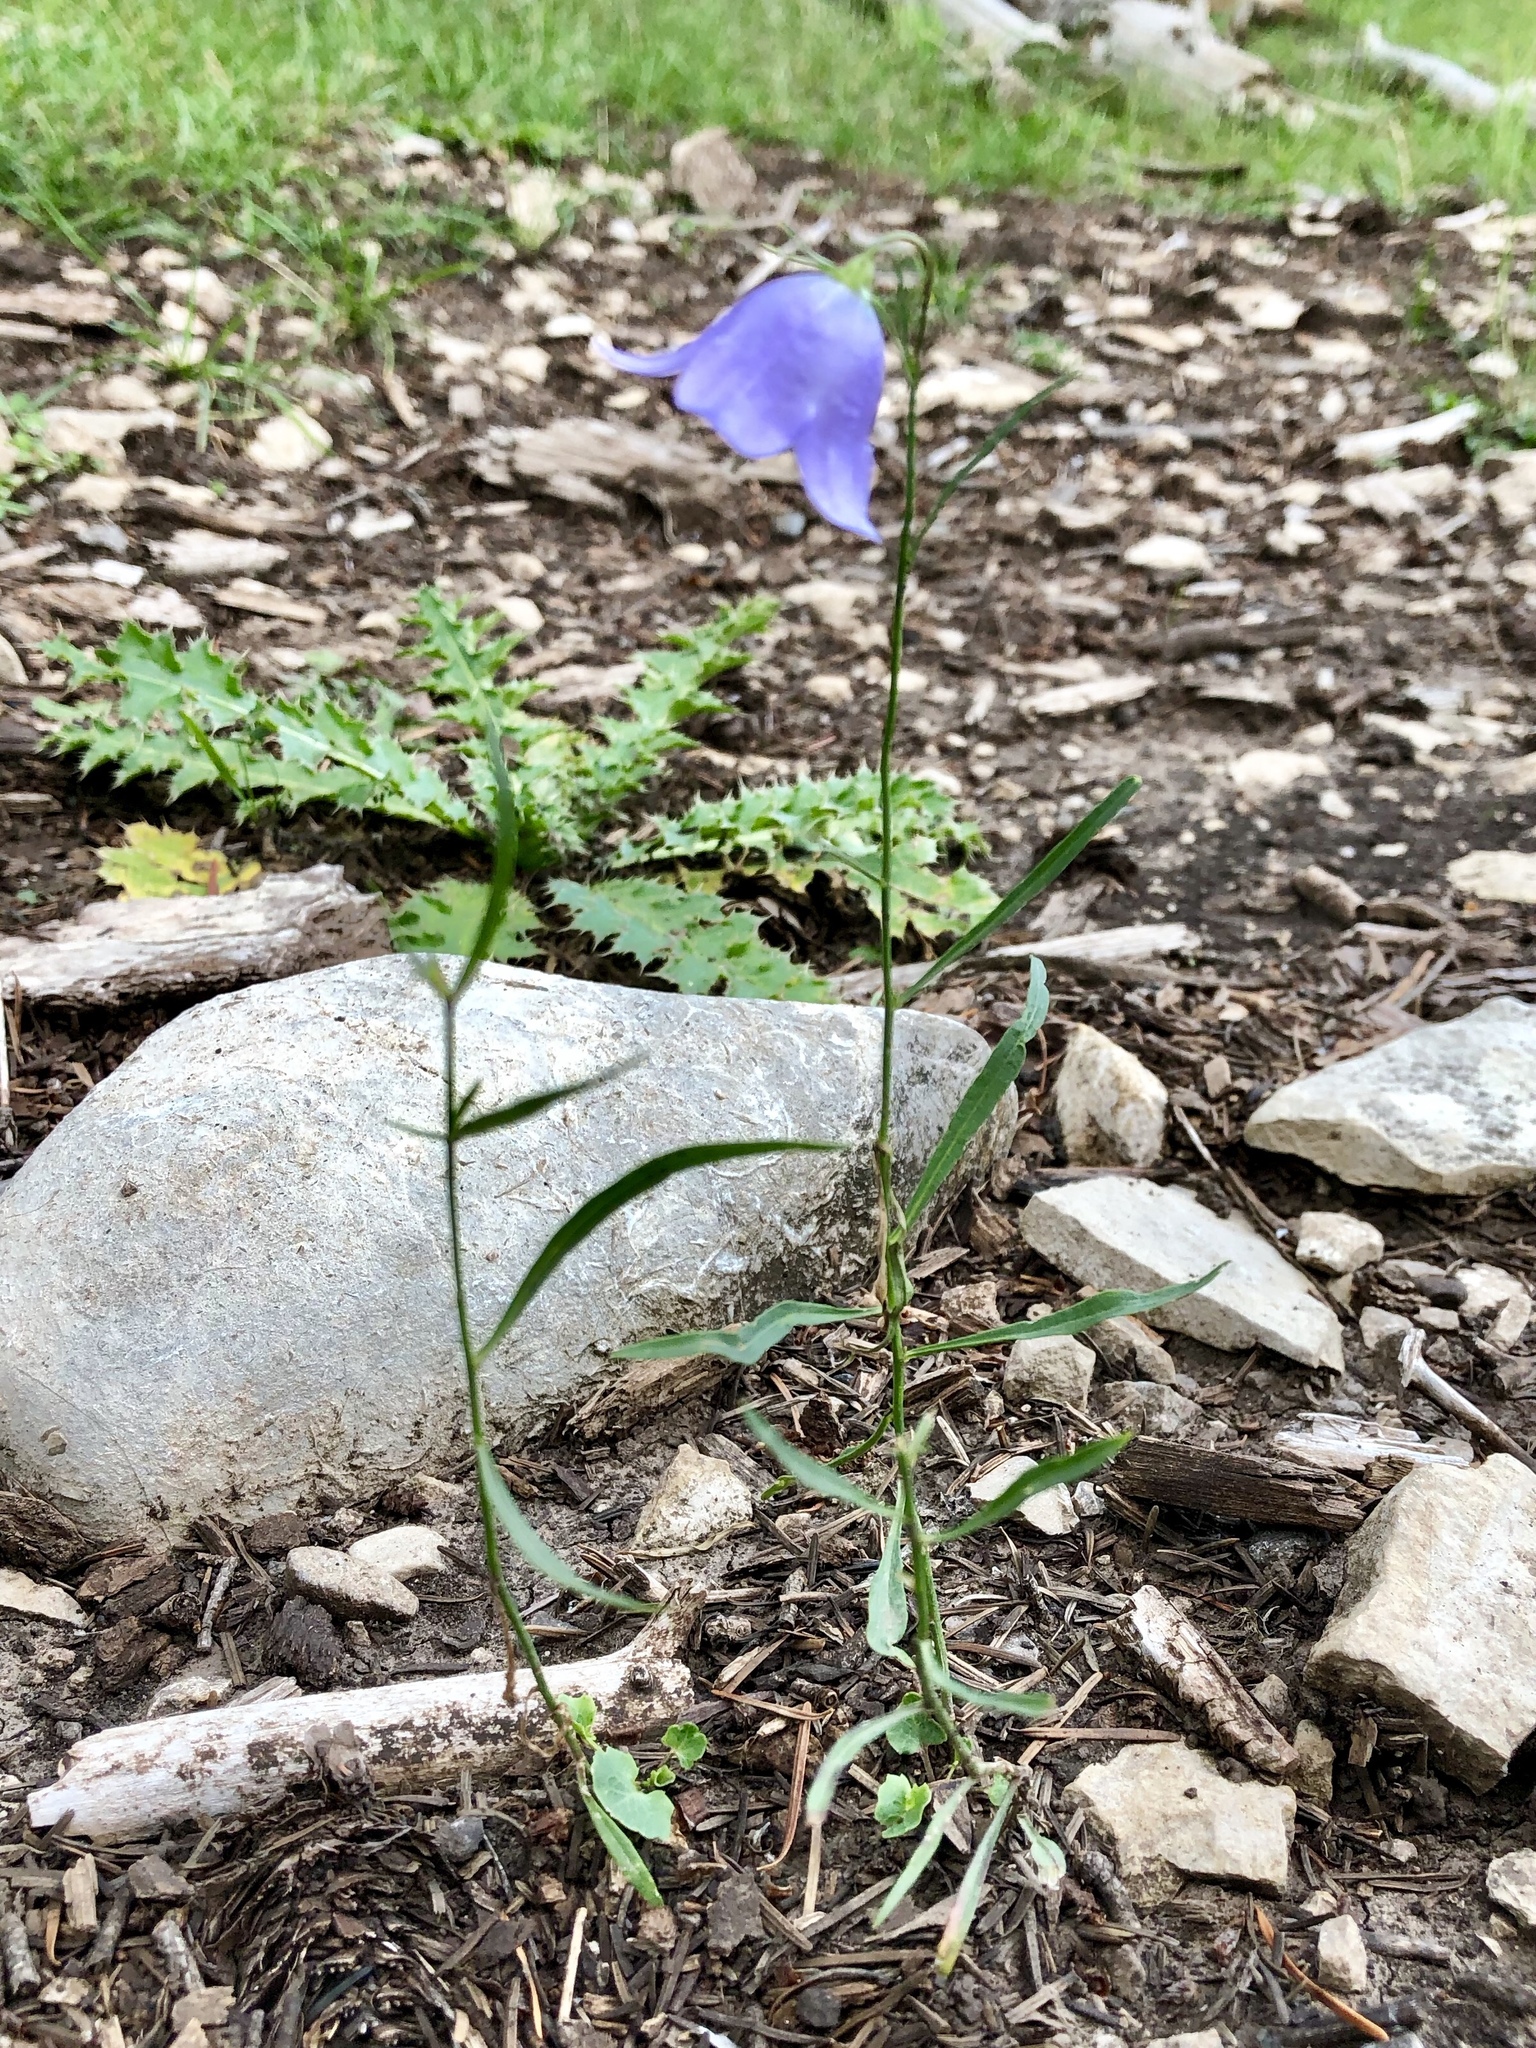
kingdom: Plantae
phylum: Tracheophyta
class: Magnoliopsida
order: Asterales
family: Campanulaceae
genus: Campanula
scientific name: Campanula petiolata
